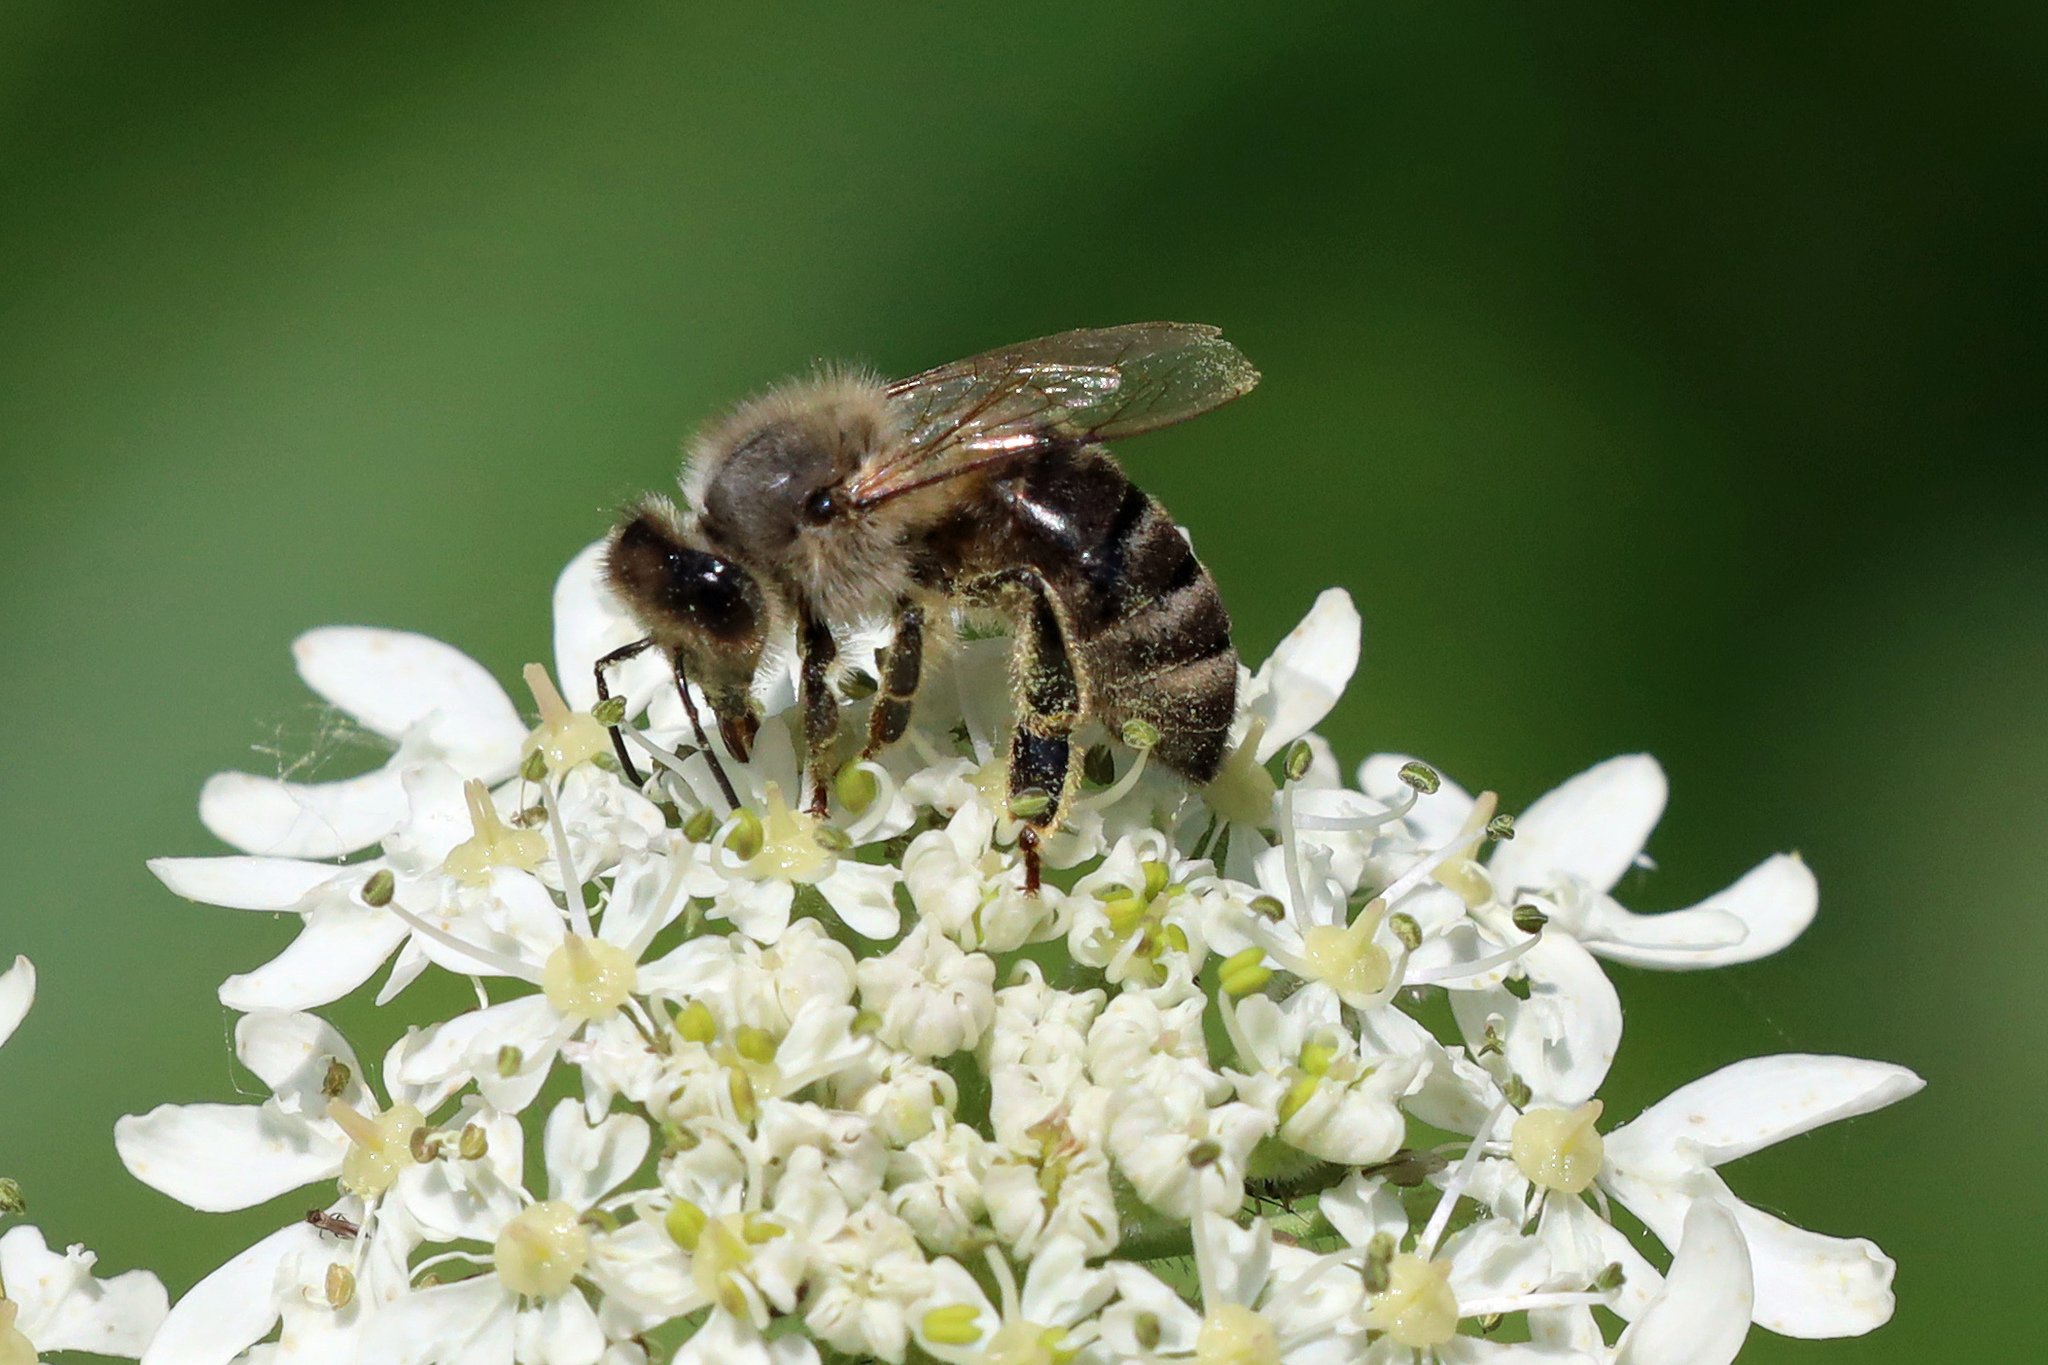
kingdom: Animalia
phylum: Arthropoda
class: Insecta
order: Hymenoptera
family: Apidae
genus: Apis
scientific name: Apis mellifera
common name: Honey bee
